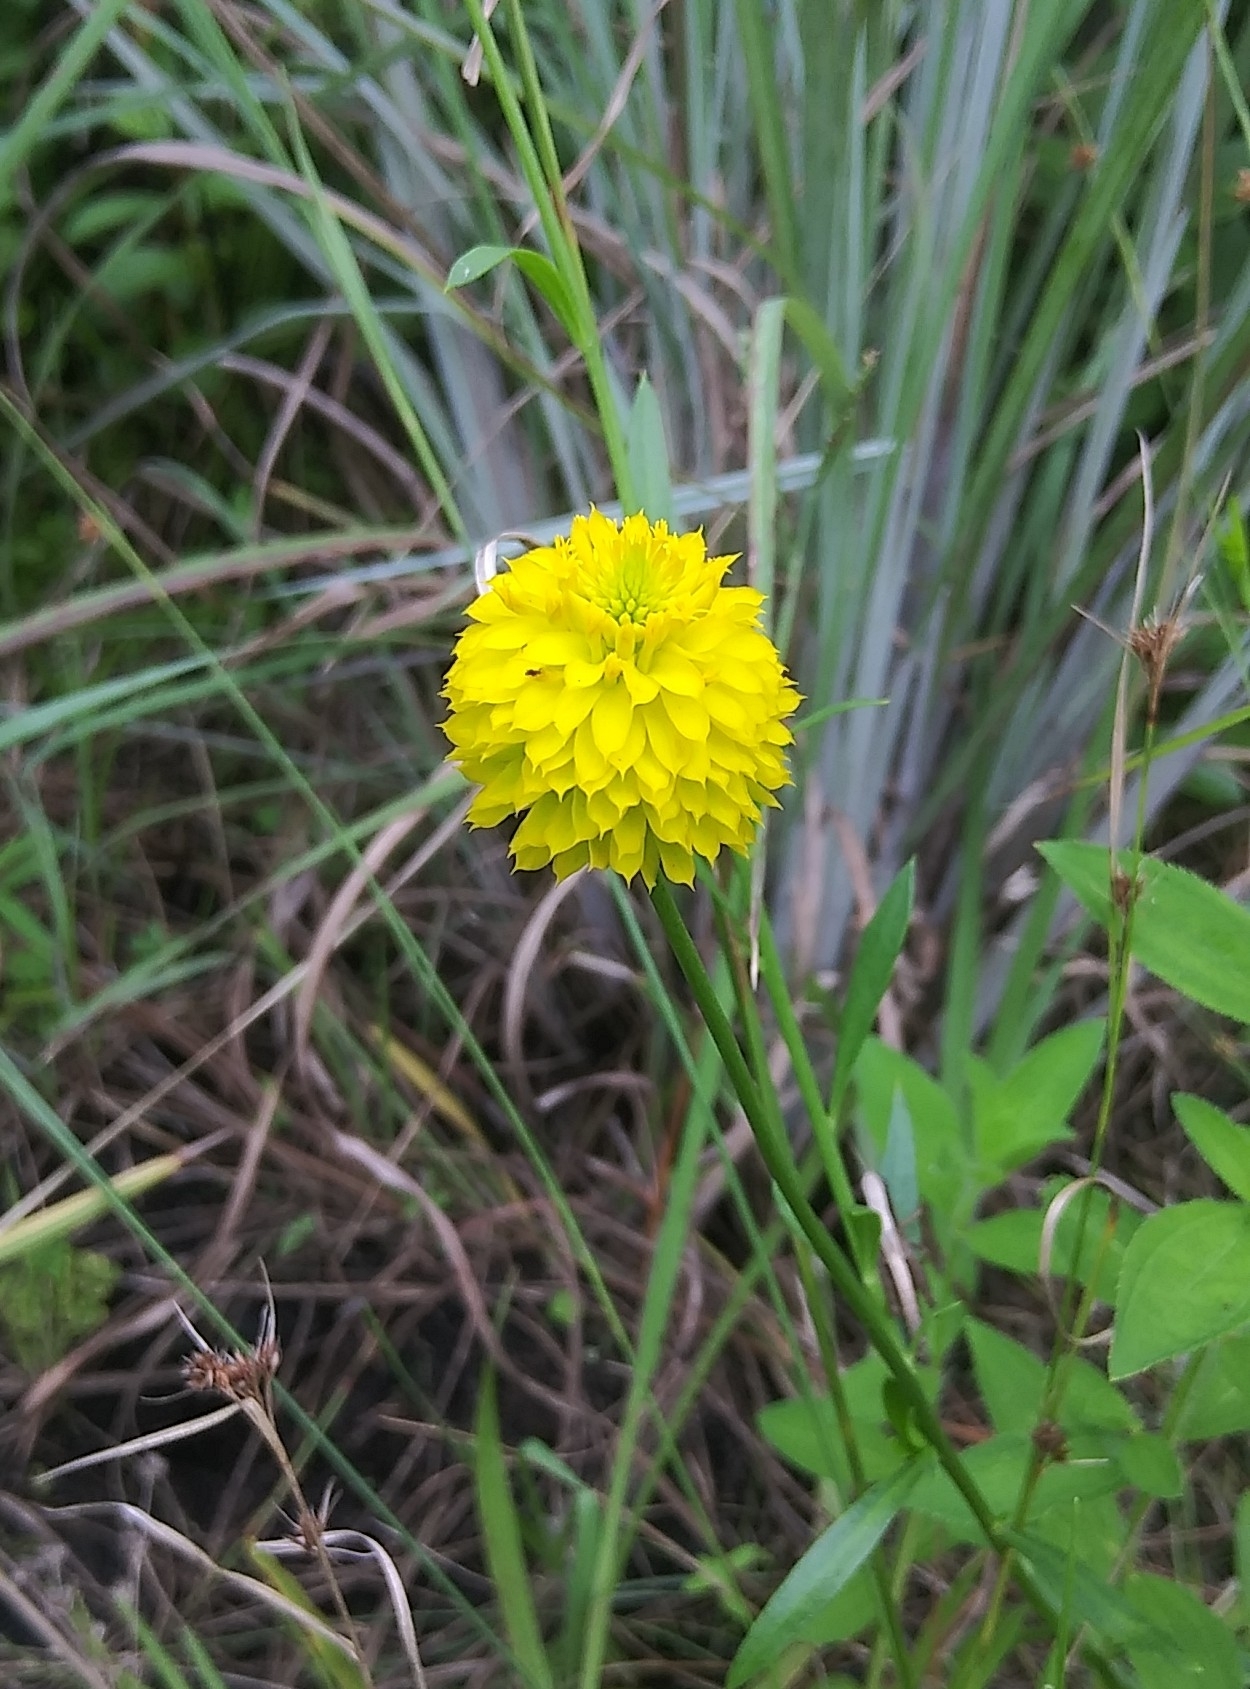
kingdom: Plantae
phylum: Tracheophyta
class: Magnoliopsida
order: Fabales
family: Polygalaceae
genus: Polygala
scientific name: Polygala rugelii
